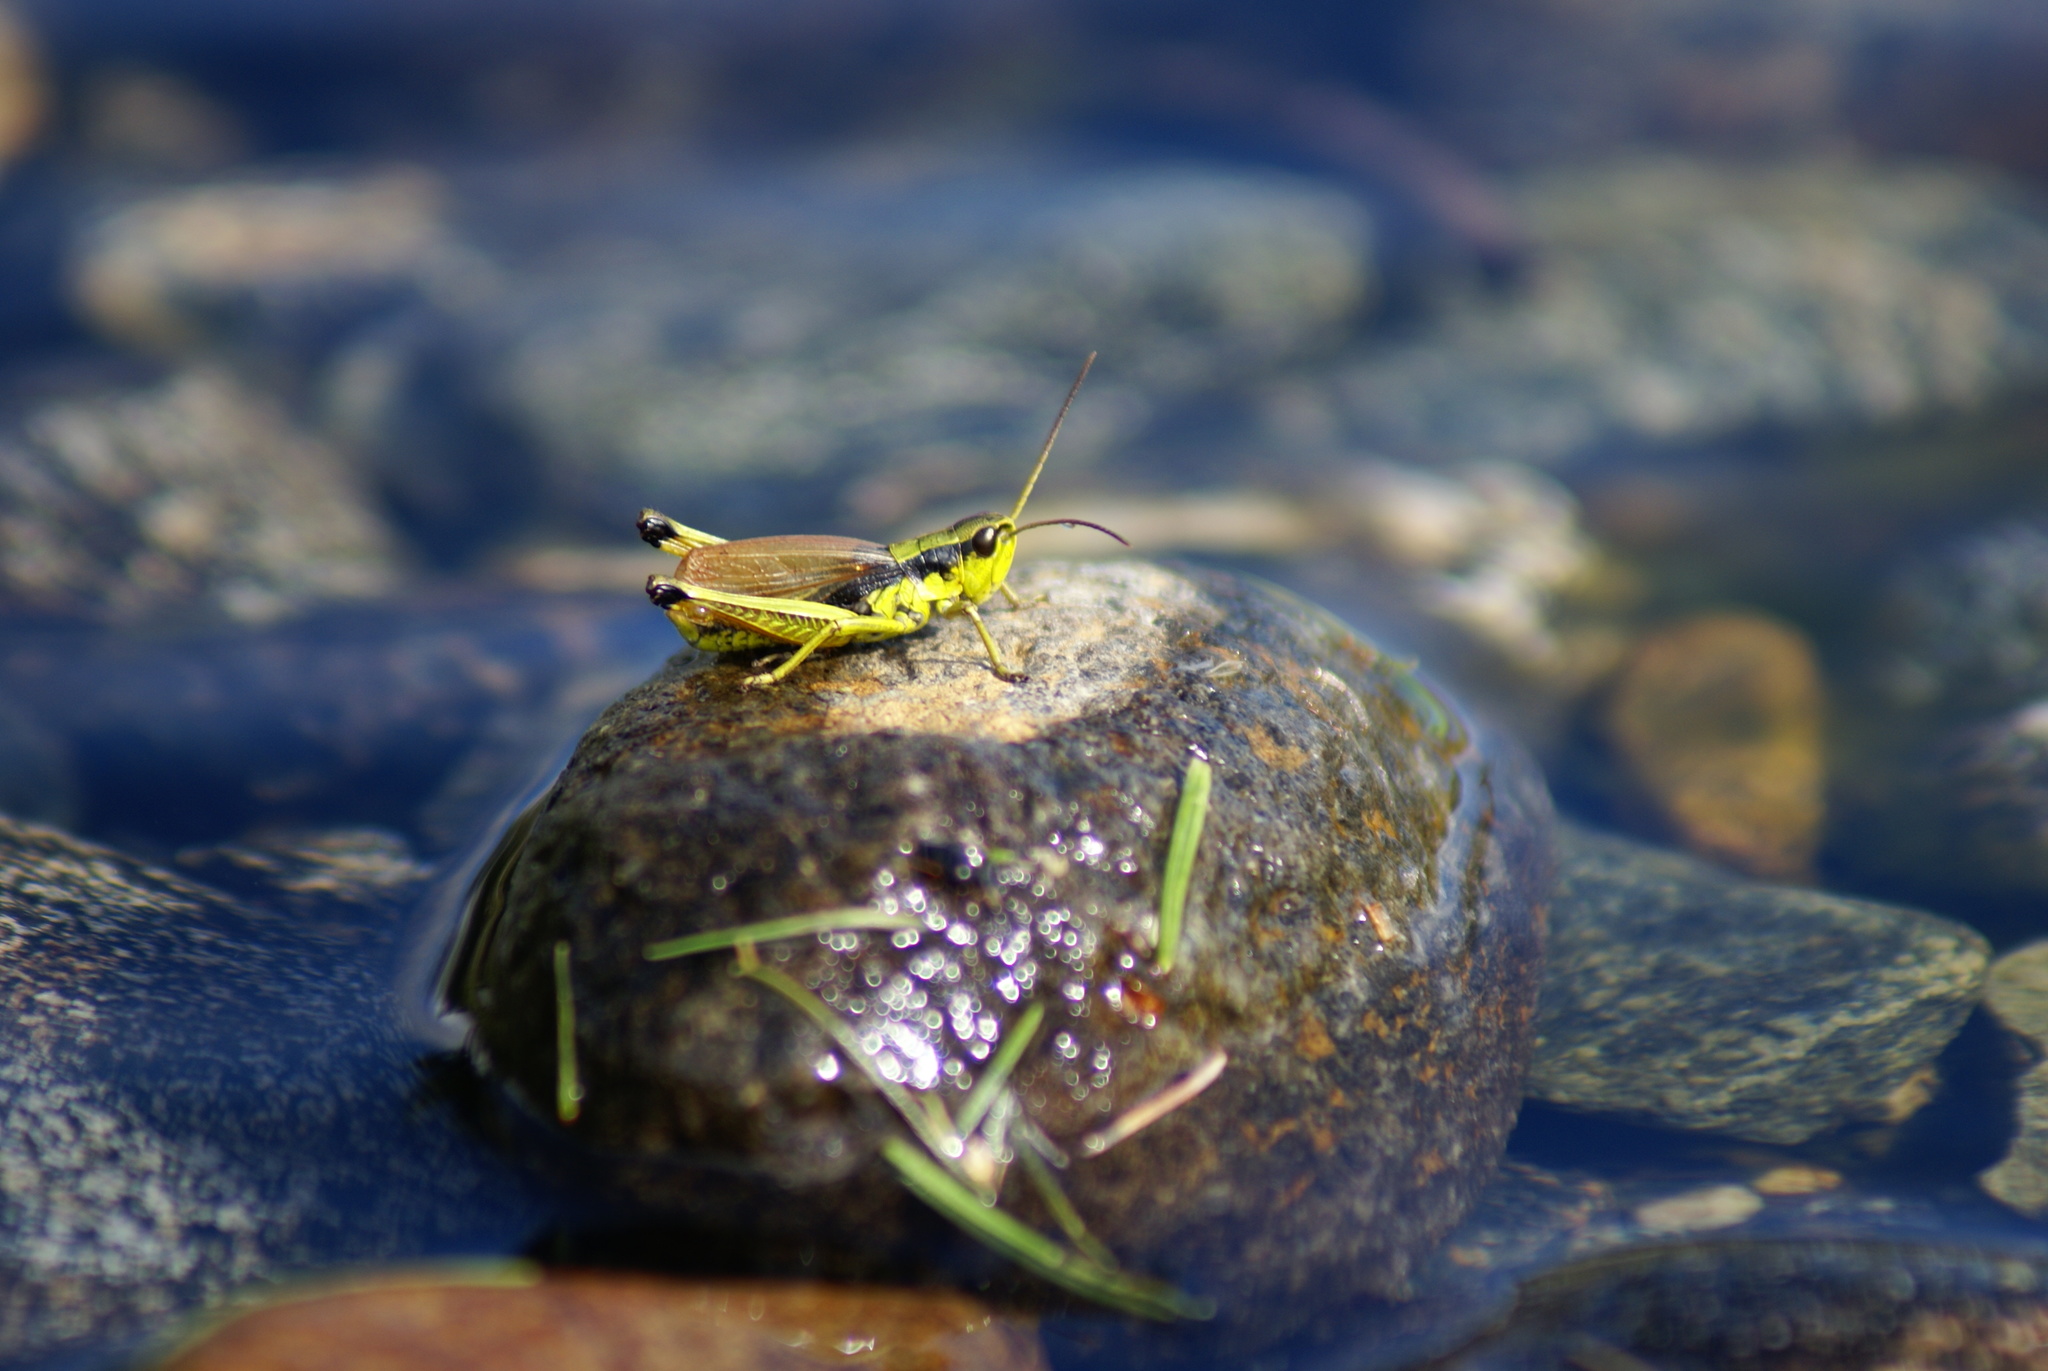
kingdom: Animalia
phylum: Arthropoda
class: Insecta
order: Orthoptera
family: Acrididae
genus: Podismopsis
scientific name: Podismopsis poppiusi
